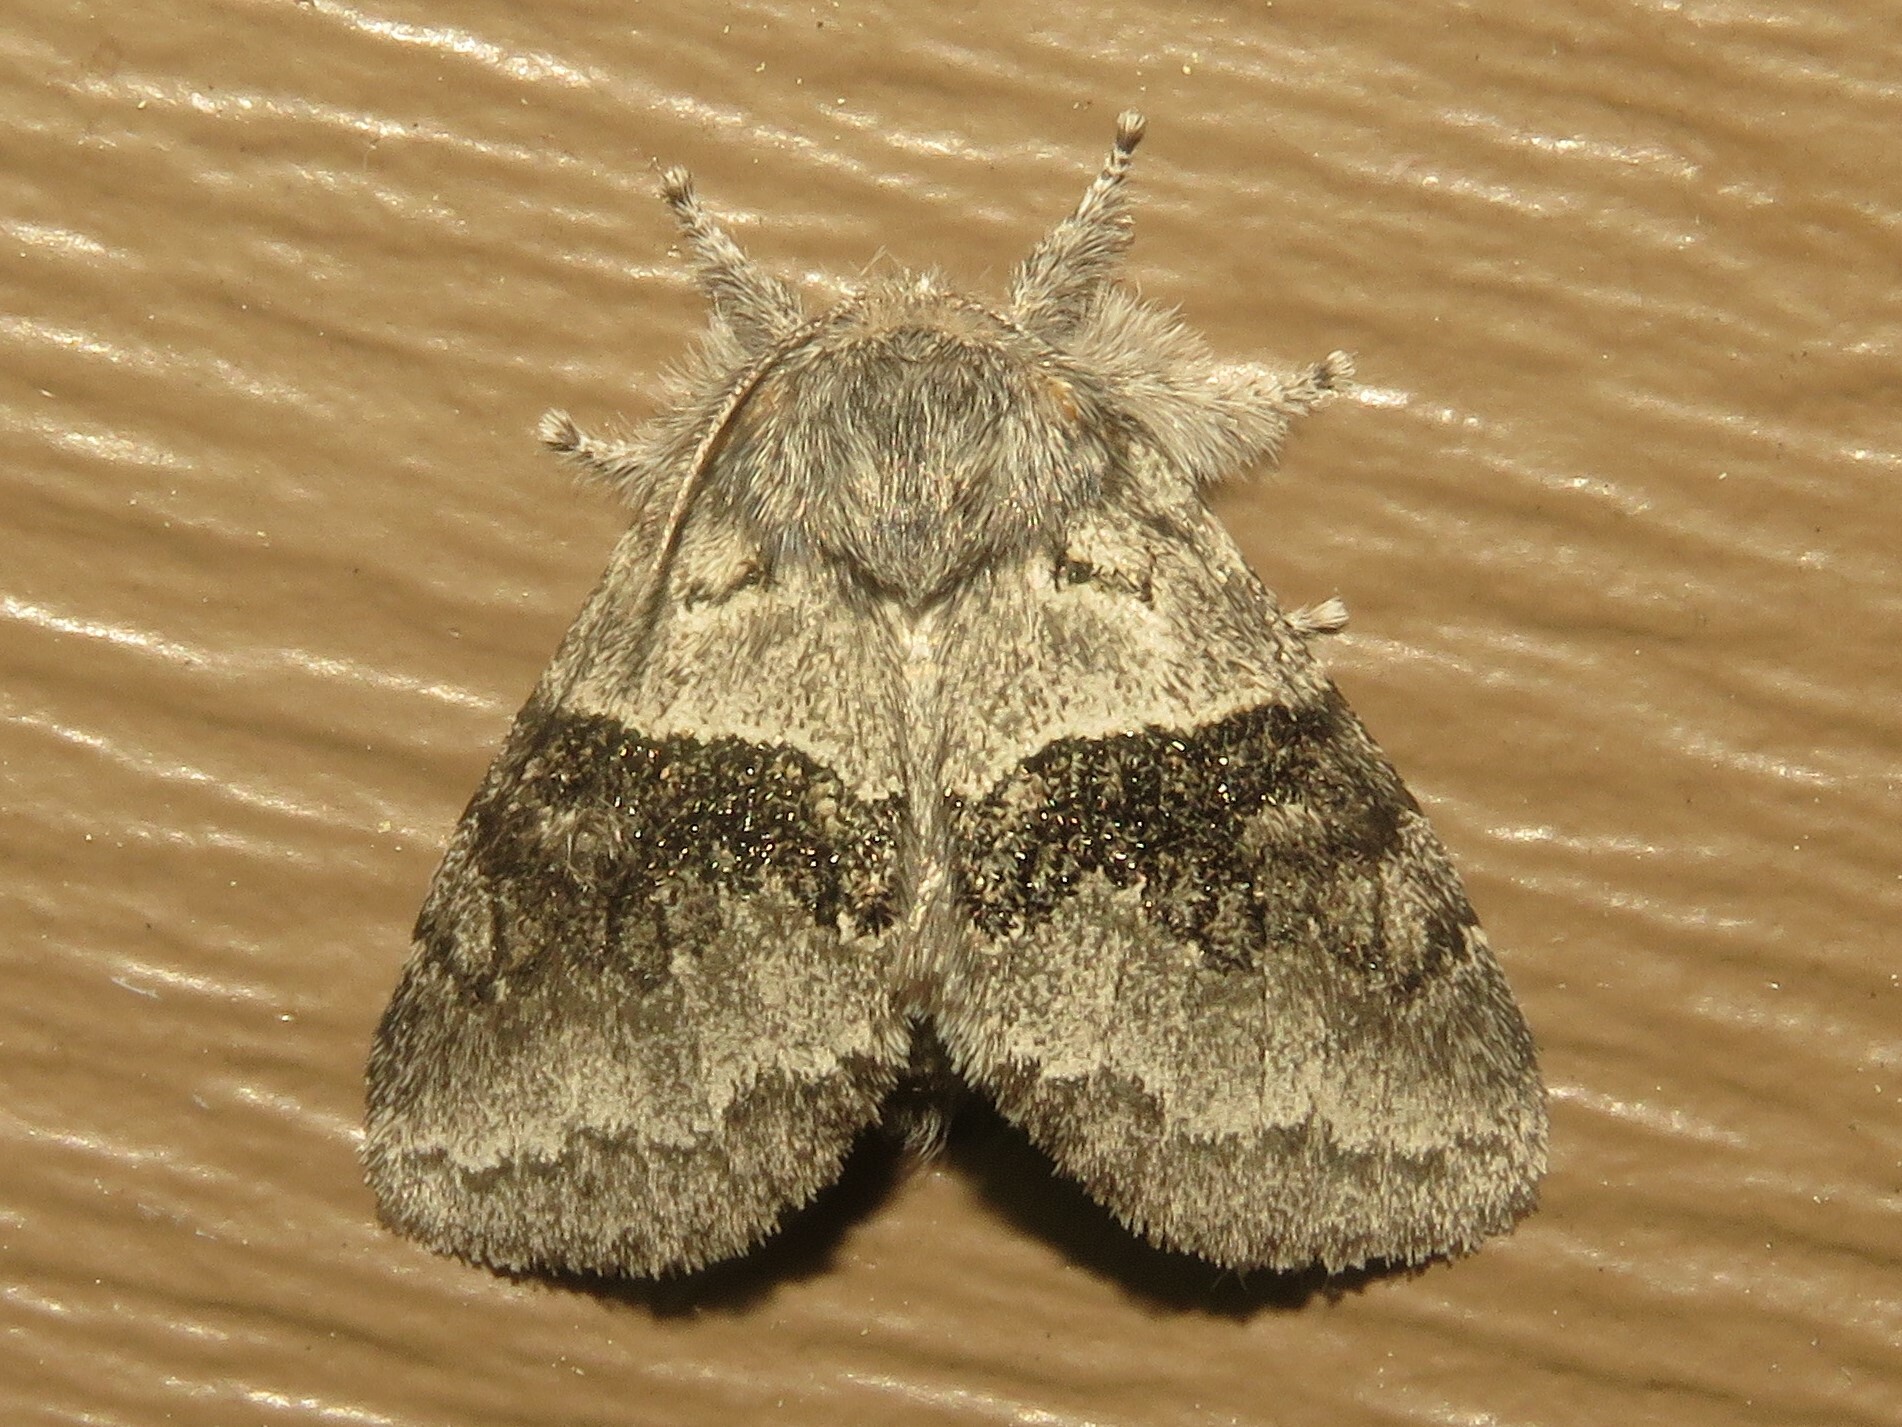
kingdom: Animalia
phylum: Arthropoda
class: Insecta
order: Lepidoptera
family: Notodontidae
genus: Gluphisia
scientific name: Gluphisia septentrionis
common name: Common gluphisia
